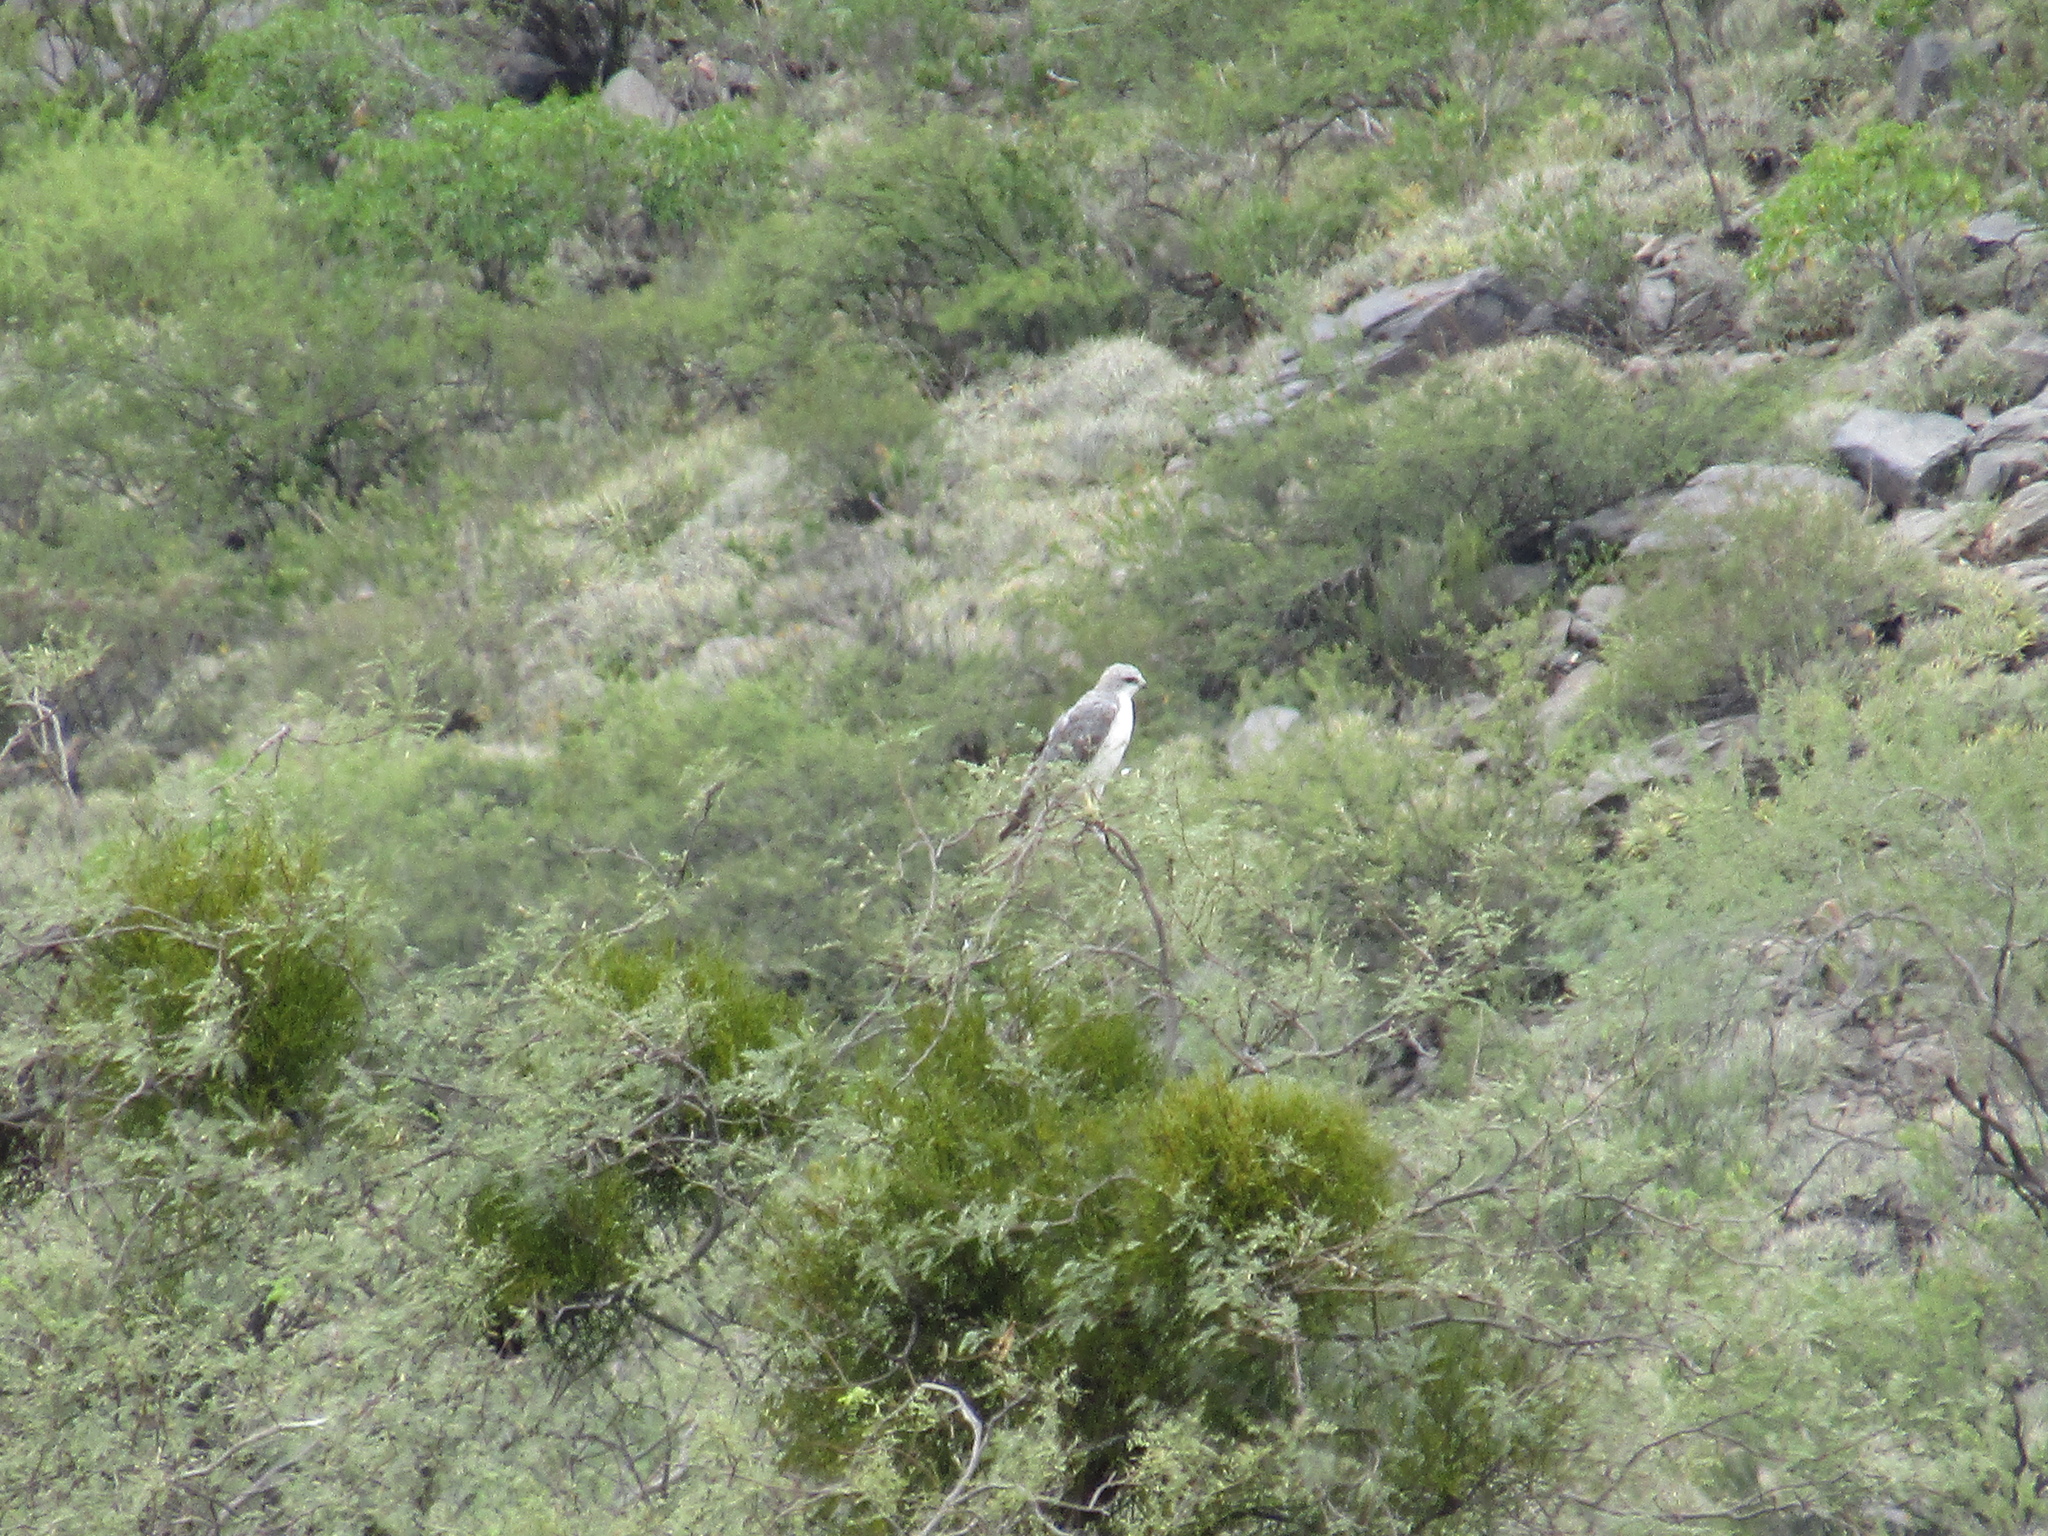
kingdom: Animalia
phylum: Chordata
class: Aves
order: Accipitriformes
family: Accipitridae
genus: Buteo
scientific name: Buteo polyosoma
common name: Variable hawk
